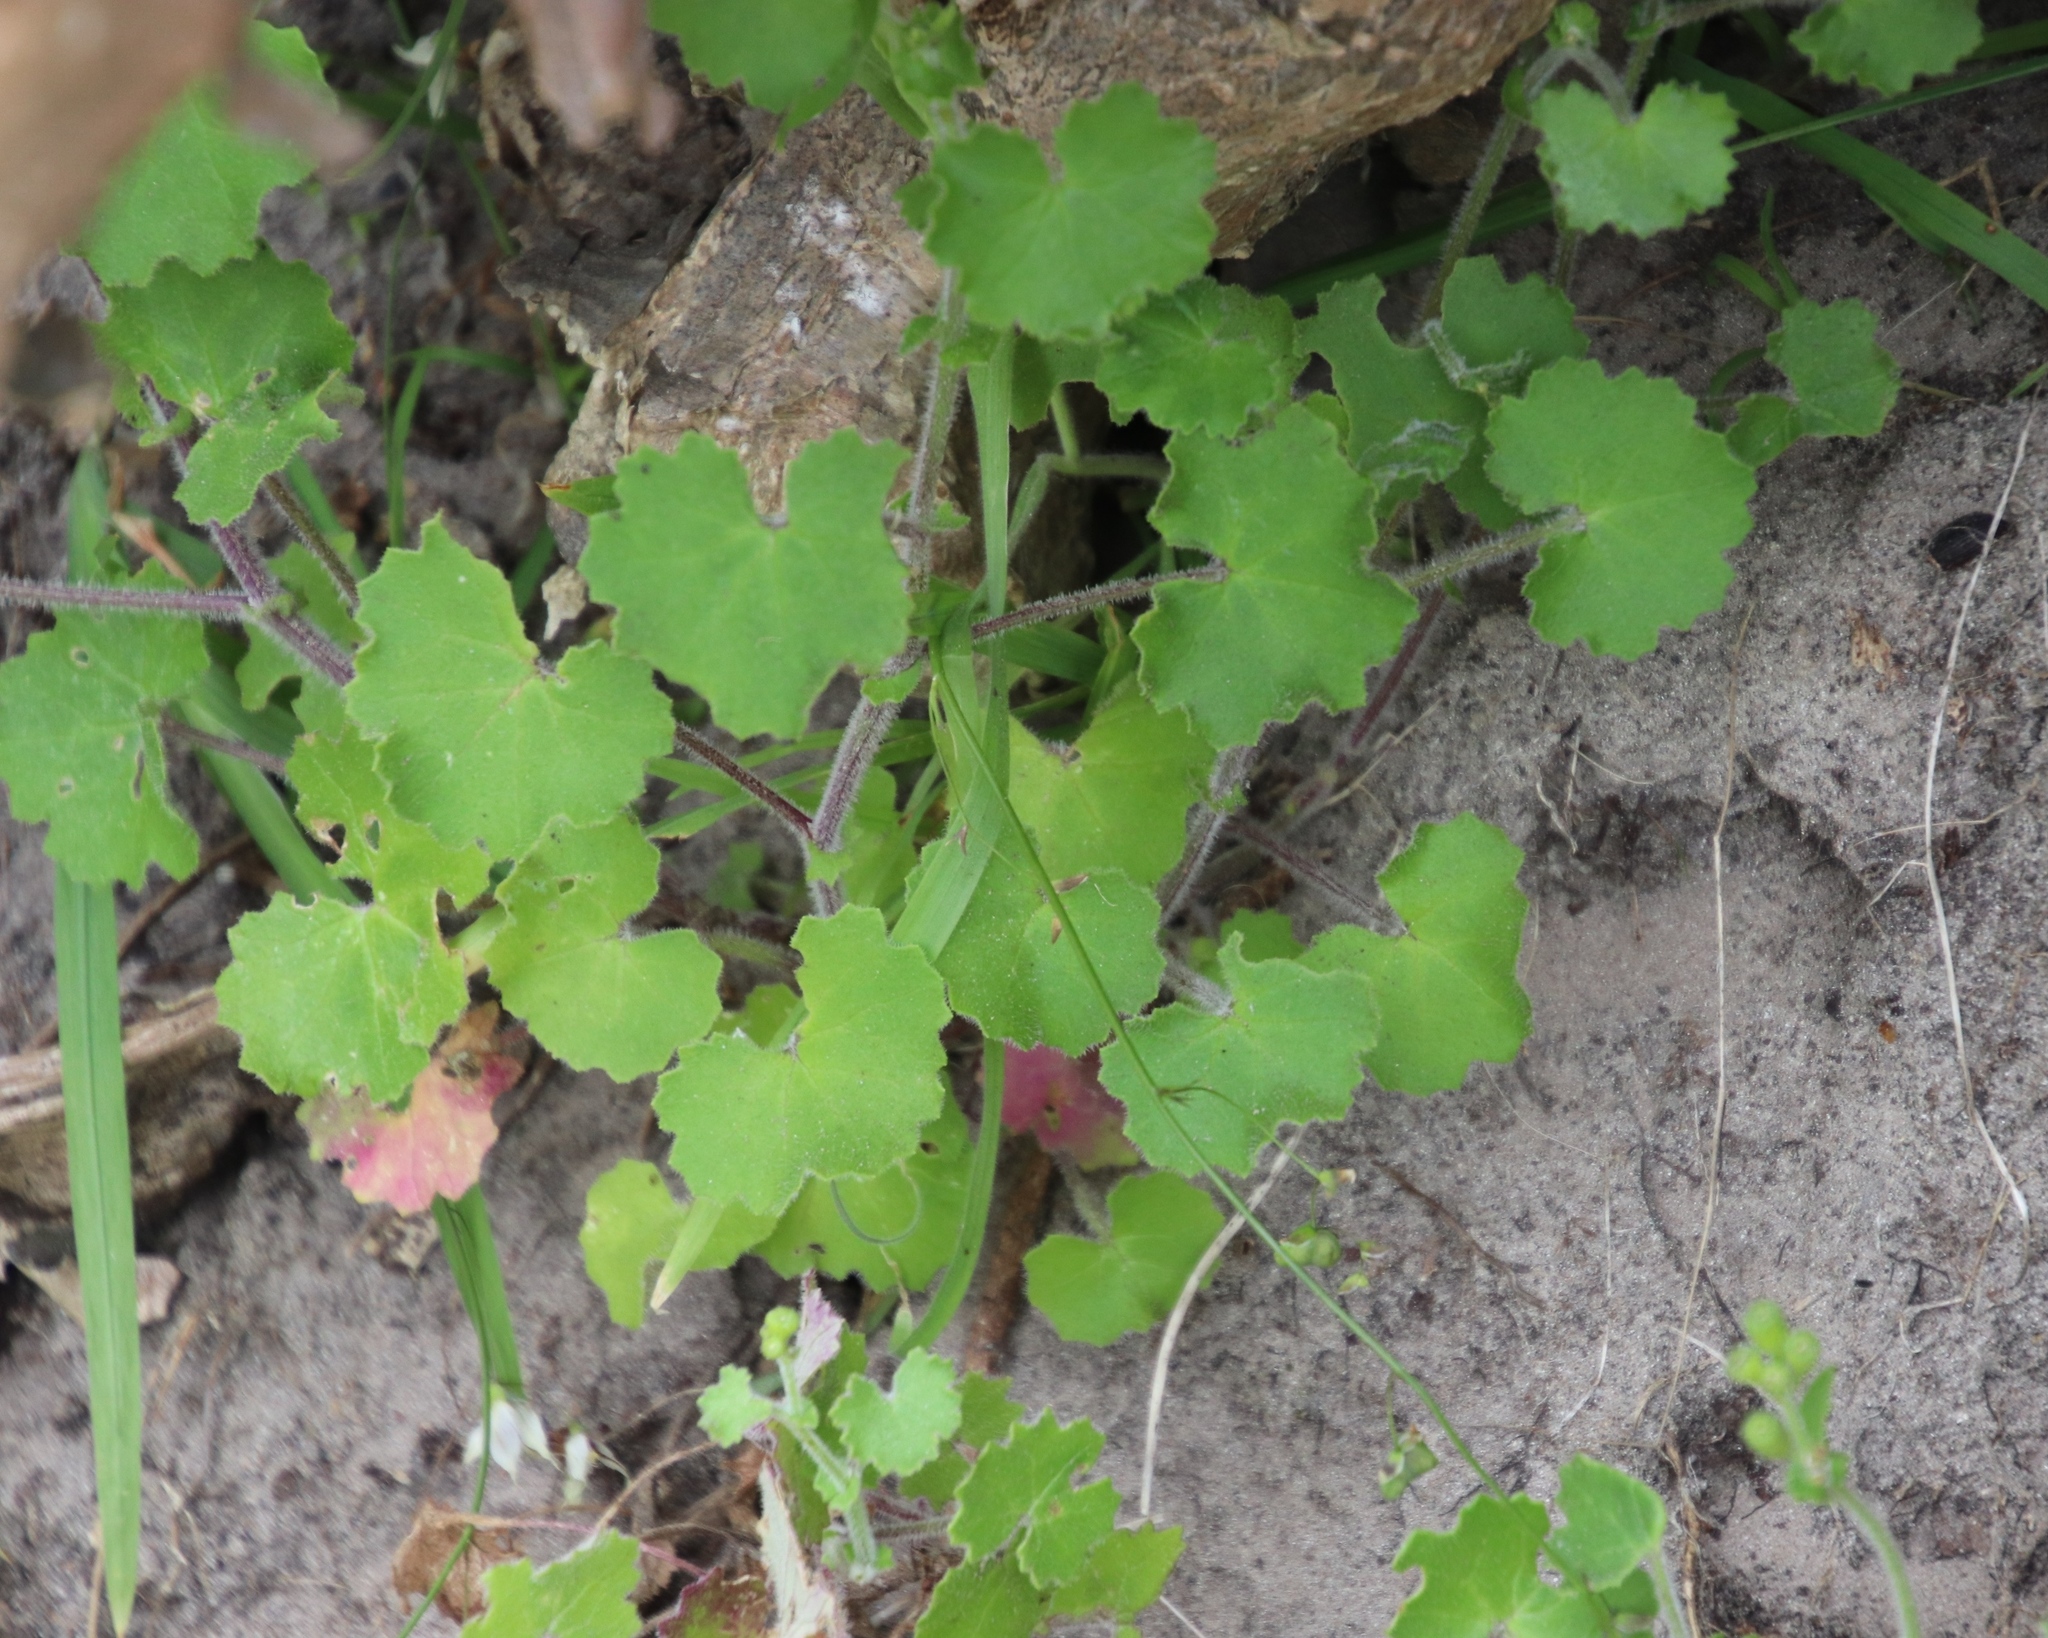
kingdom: Plantae
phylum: Tracheophyta
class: Magnoliopsida
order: Asterales
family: Asteraceae
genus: Cineraria
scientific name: Cineraria geifolia
